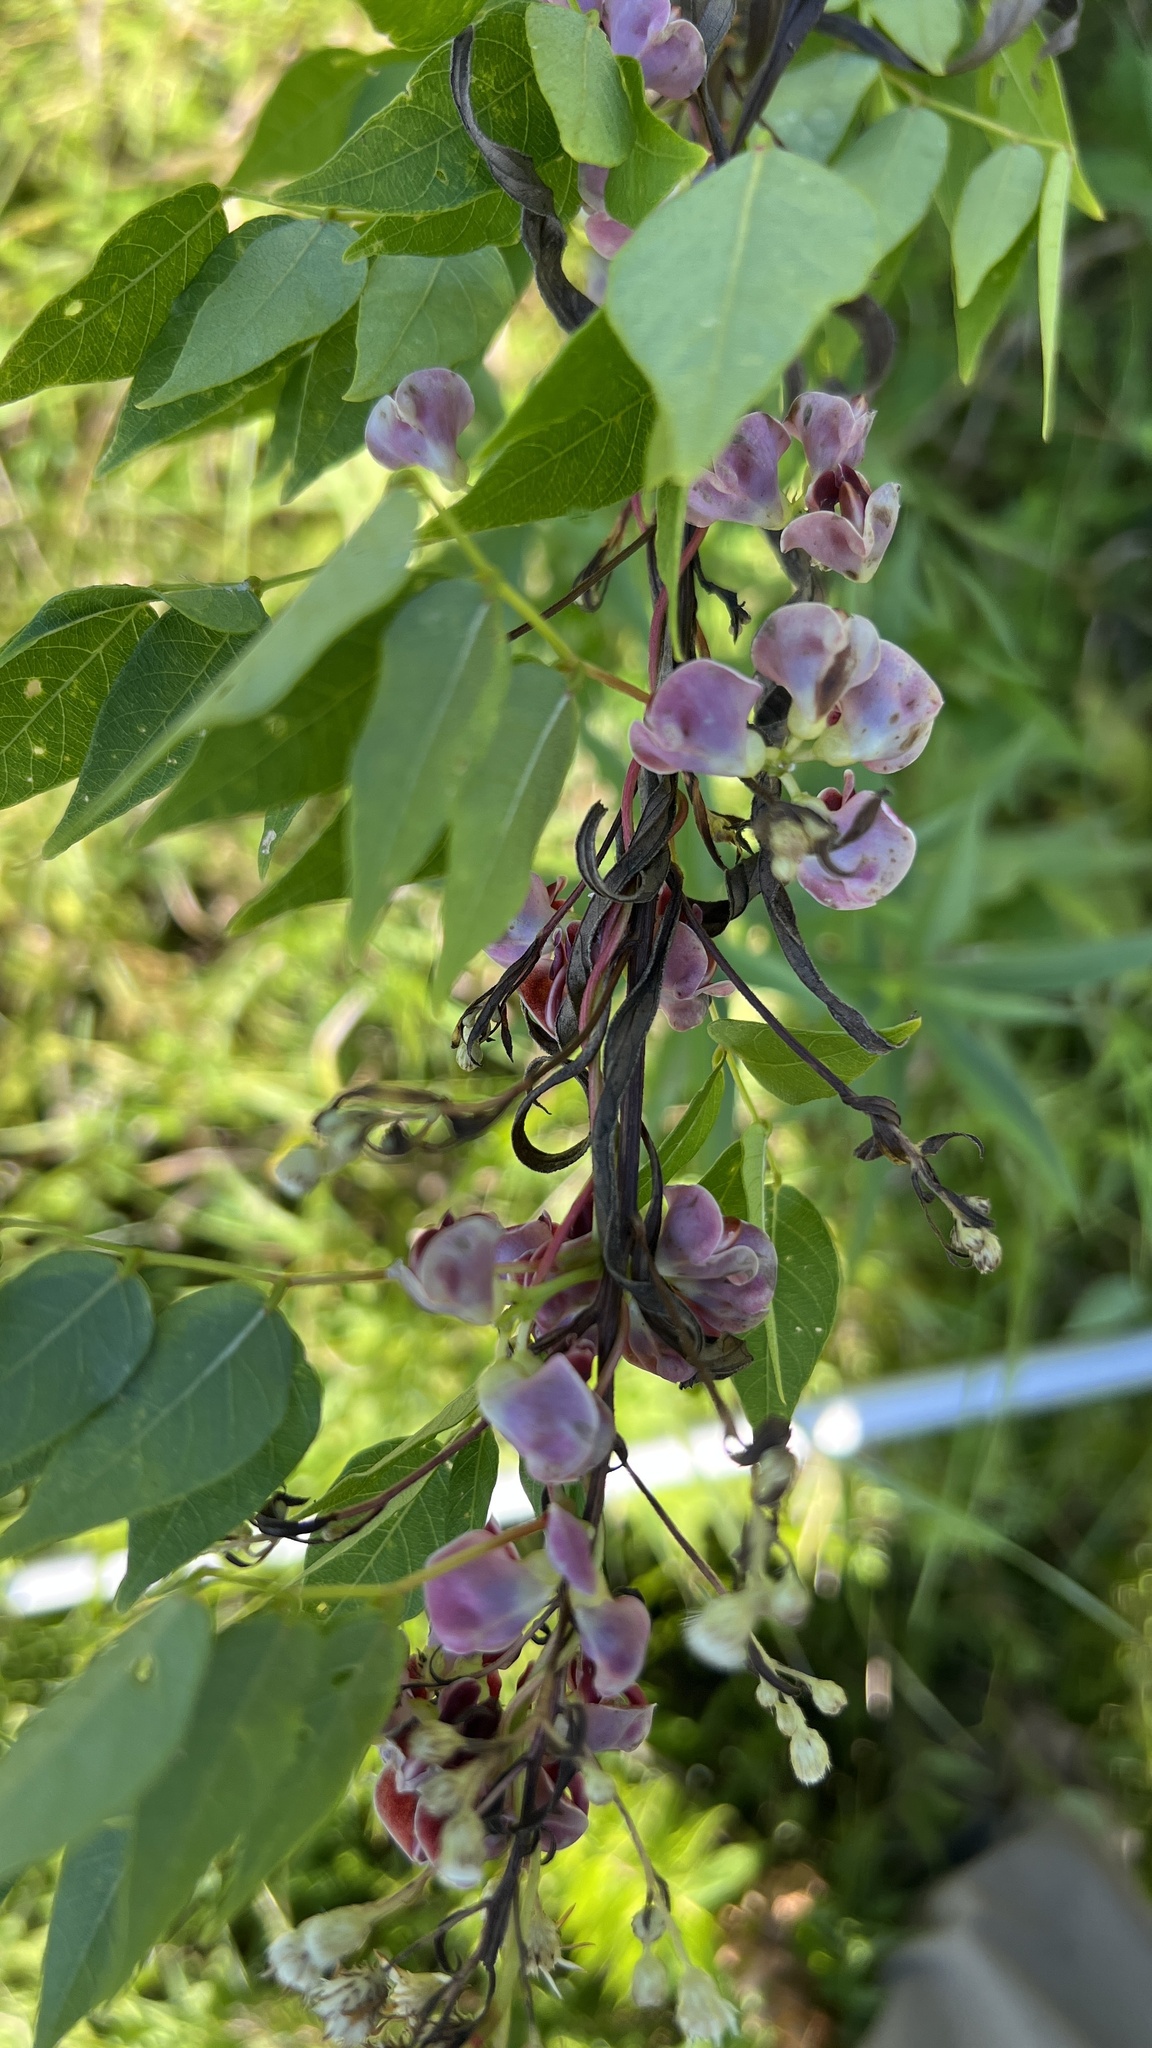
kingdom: Plantae
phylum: Tracheophyta
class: Magnoliopsida
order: Fabales
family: Fabaceae
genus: Apios
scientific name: Apios americana
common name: American potato-bean
